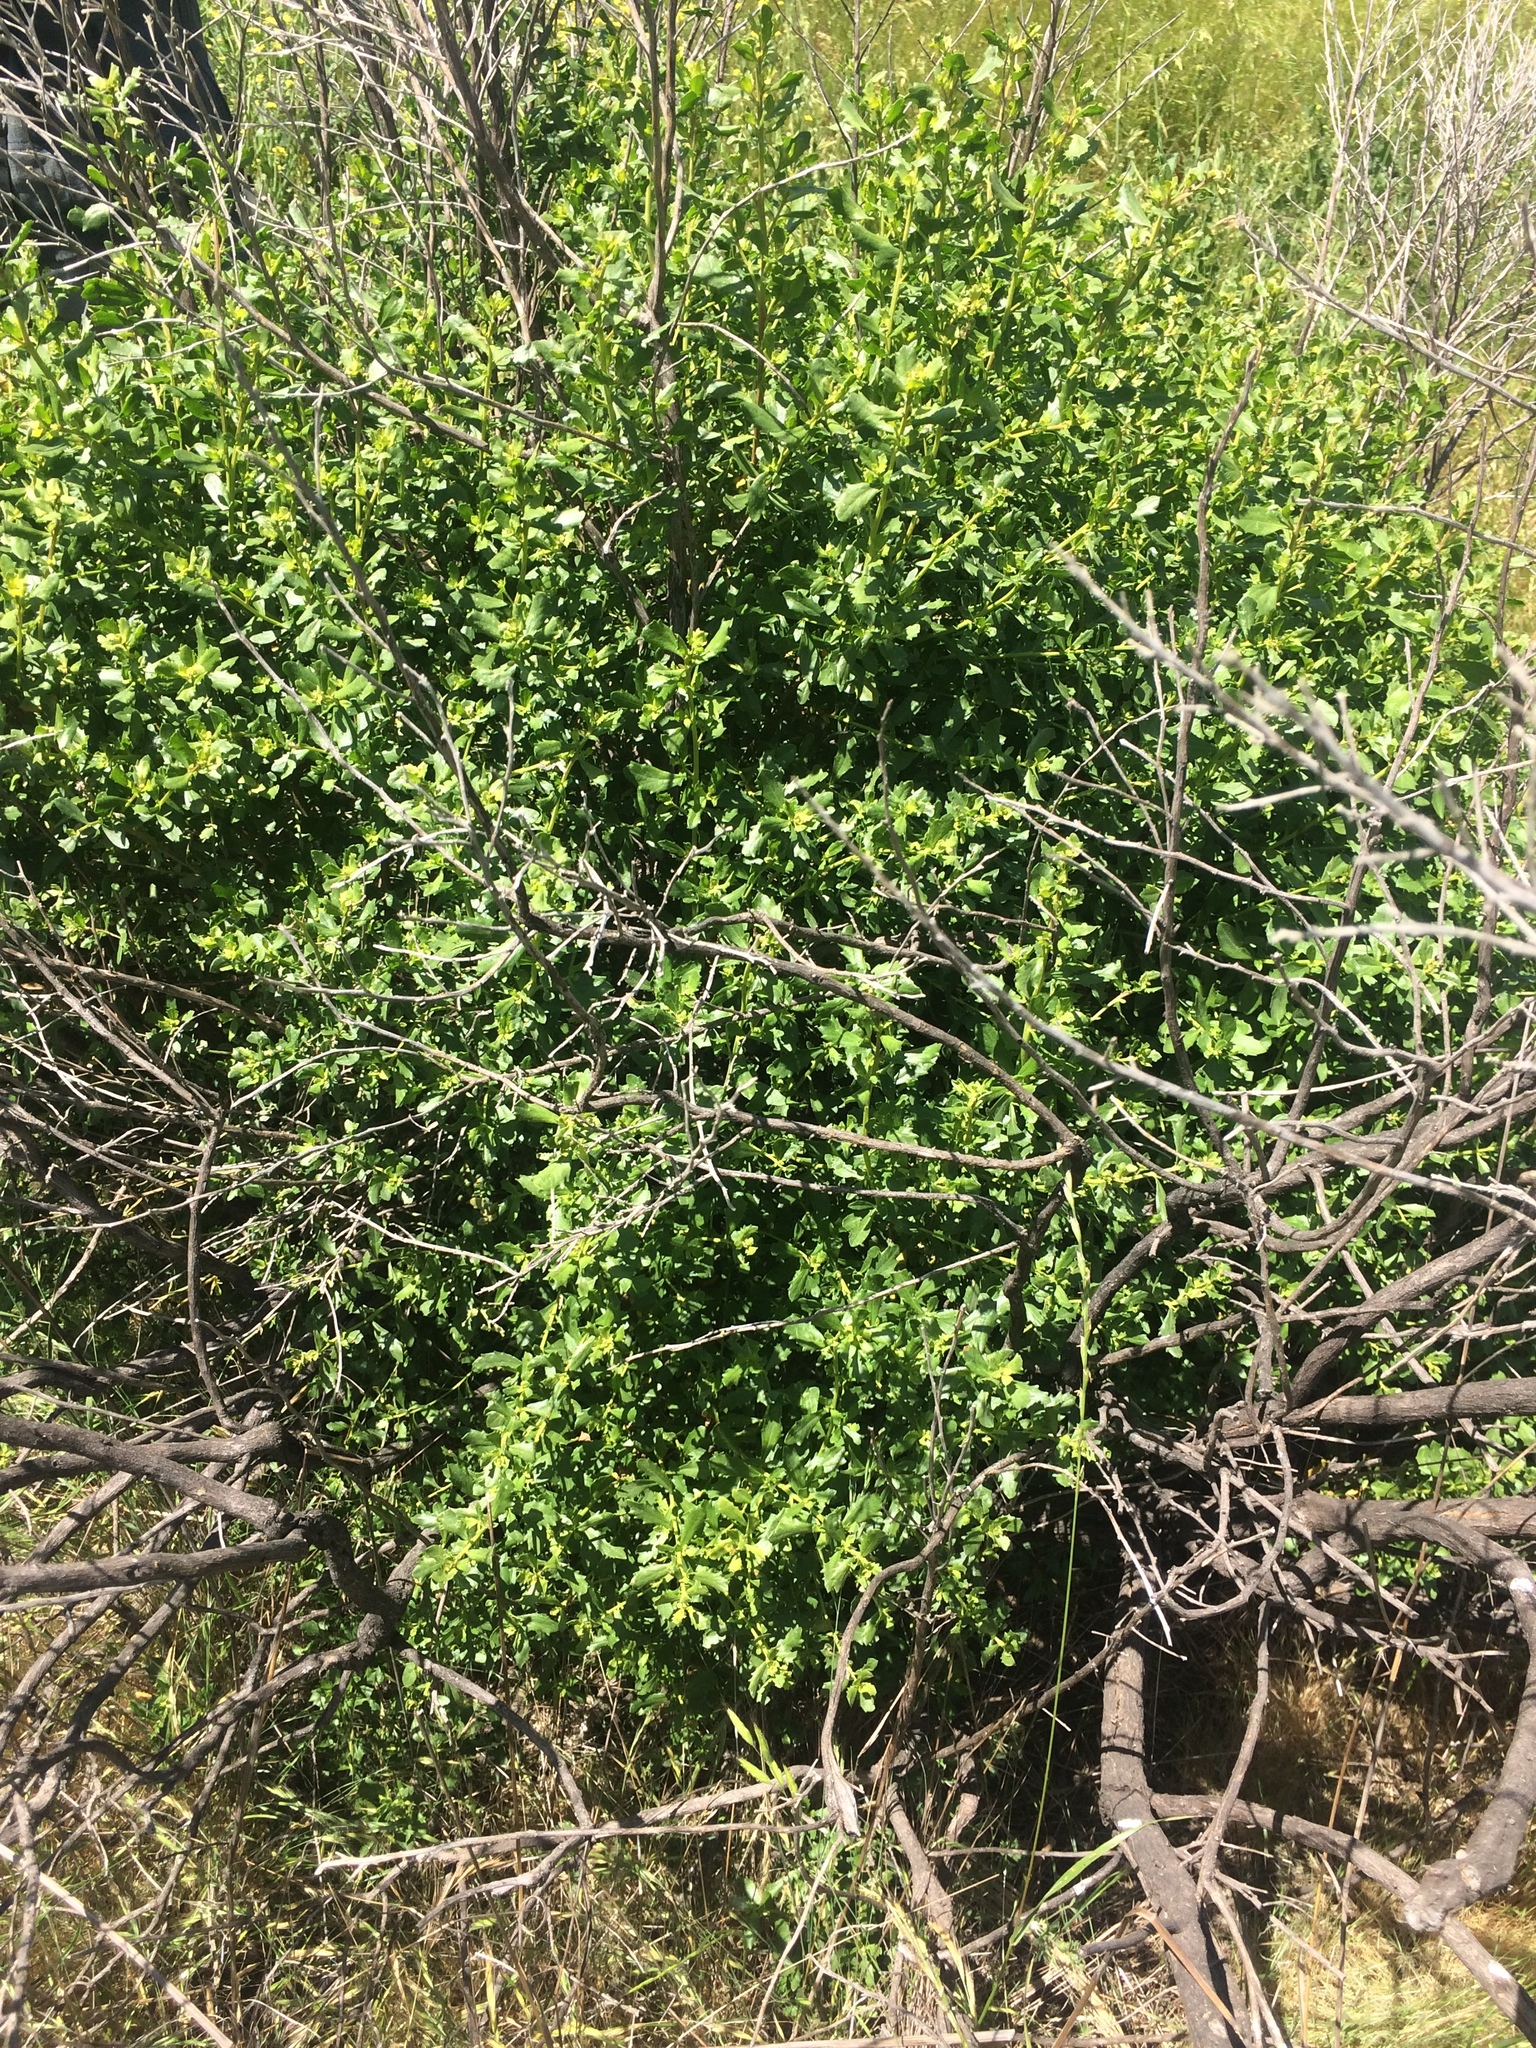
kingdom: Plantae
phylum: Tracheophyta
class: Magnoliopsida
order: Asterales
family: Asteraceae
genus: Baccharis
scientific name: Baccharis pilularis
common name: Coyotebrush
